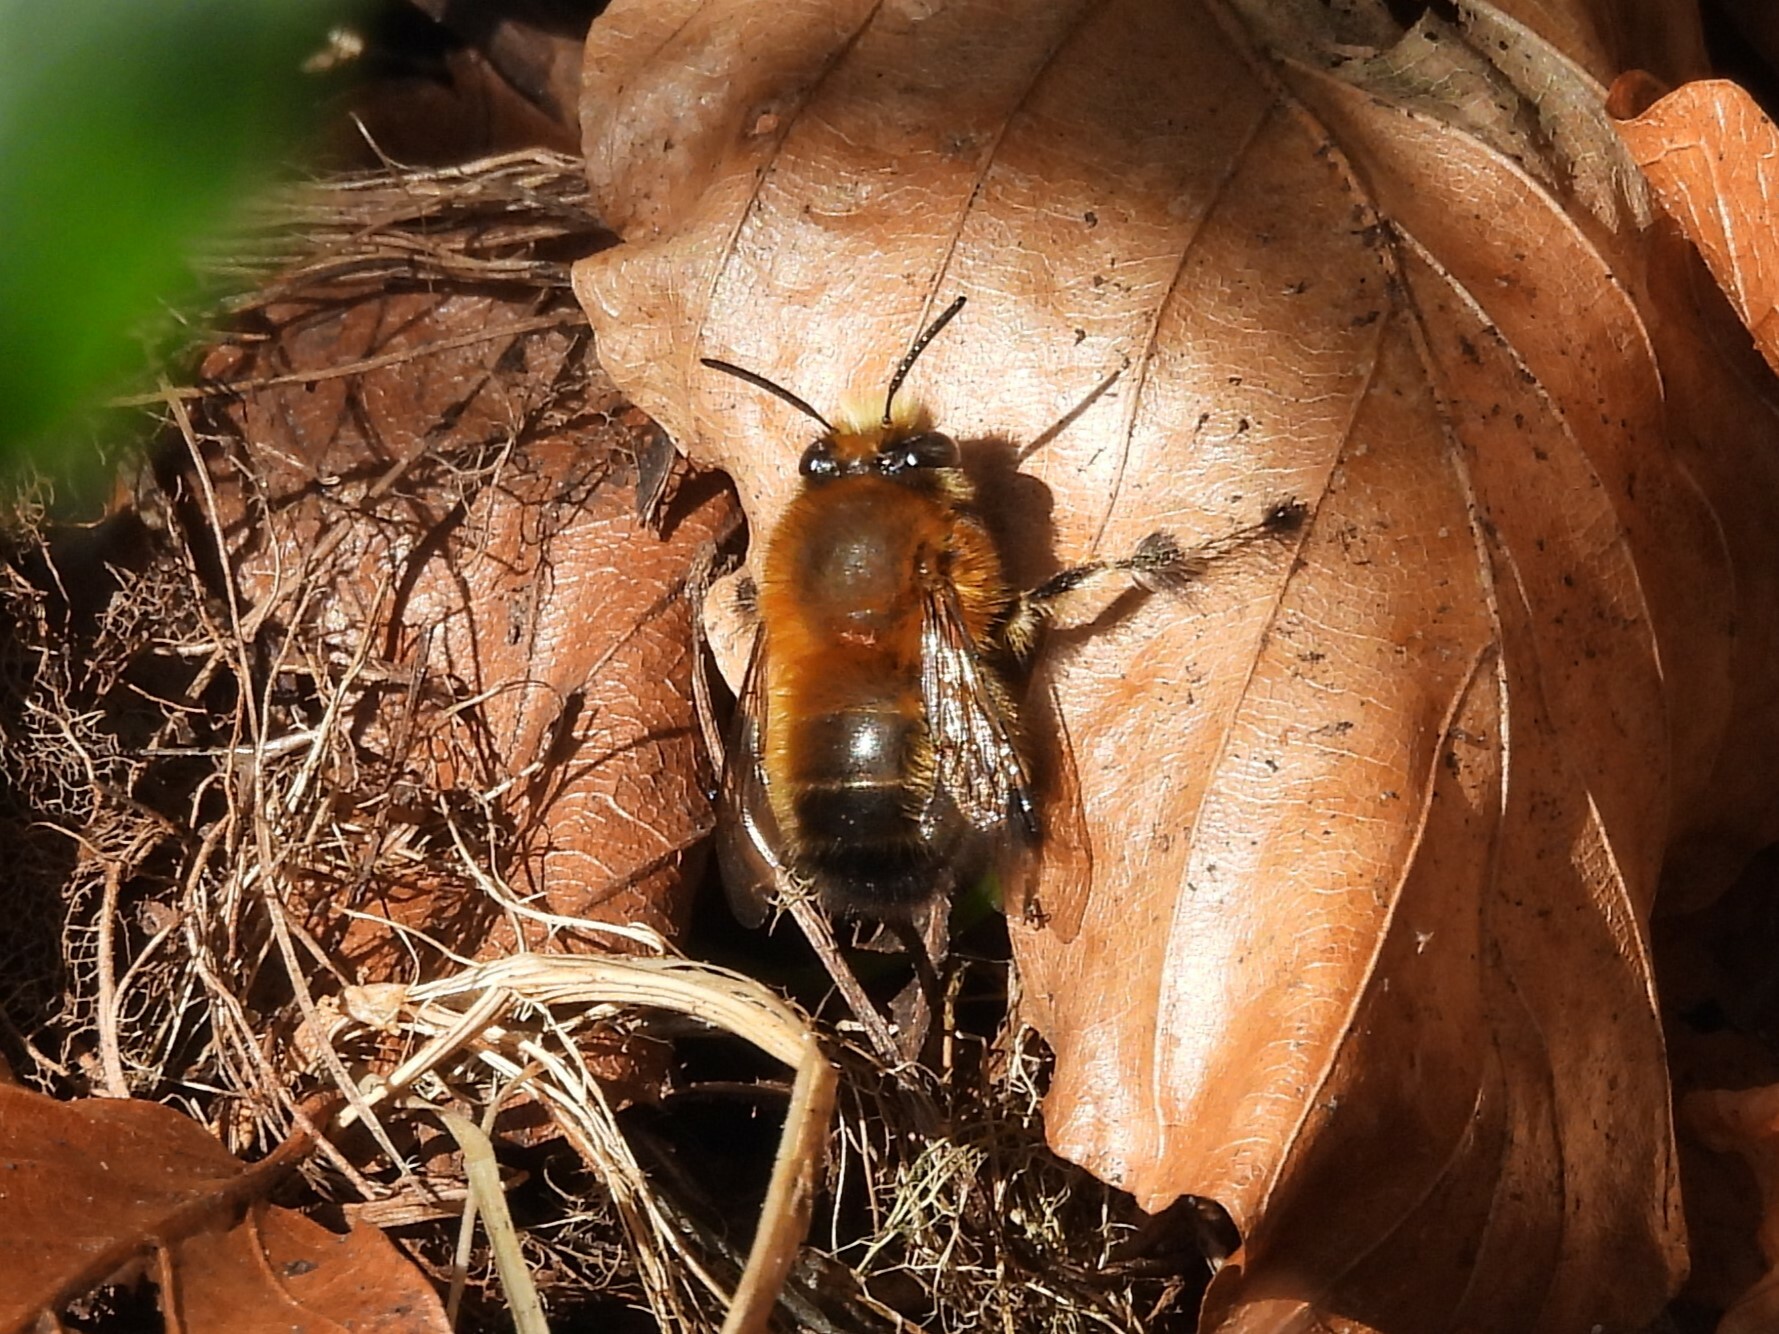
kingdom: Animalia
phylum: Arthropoda
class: Insecta
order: Hymenoptera
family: Apidae
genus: Anthophora
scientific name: Anthophora plumipes
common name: Hairy-footed flower bee
